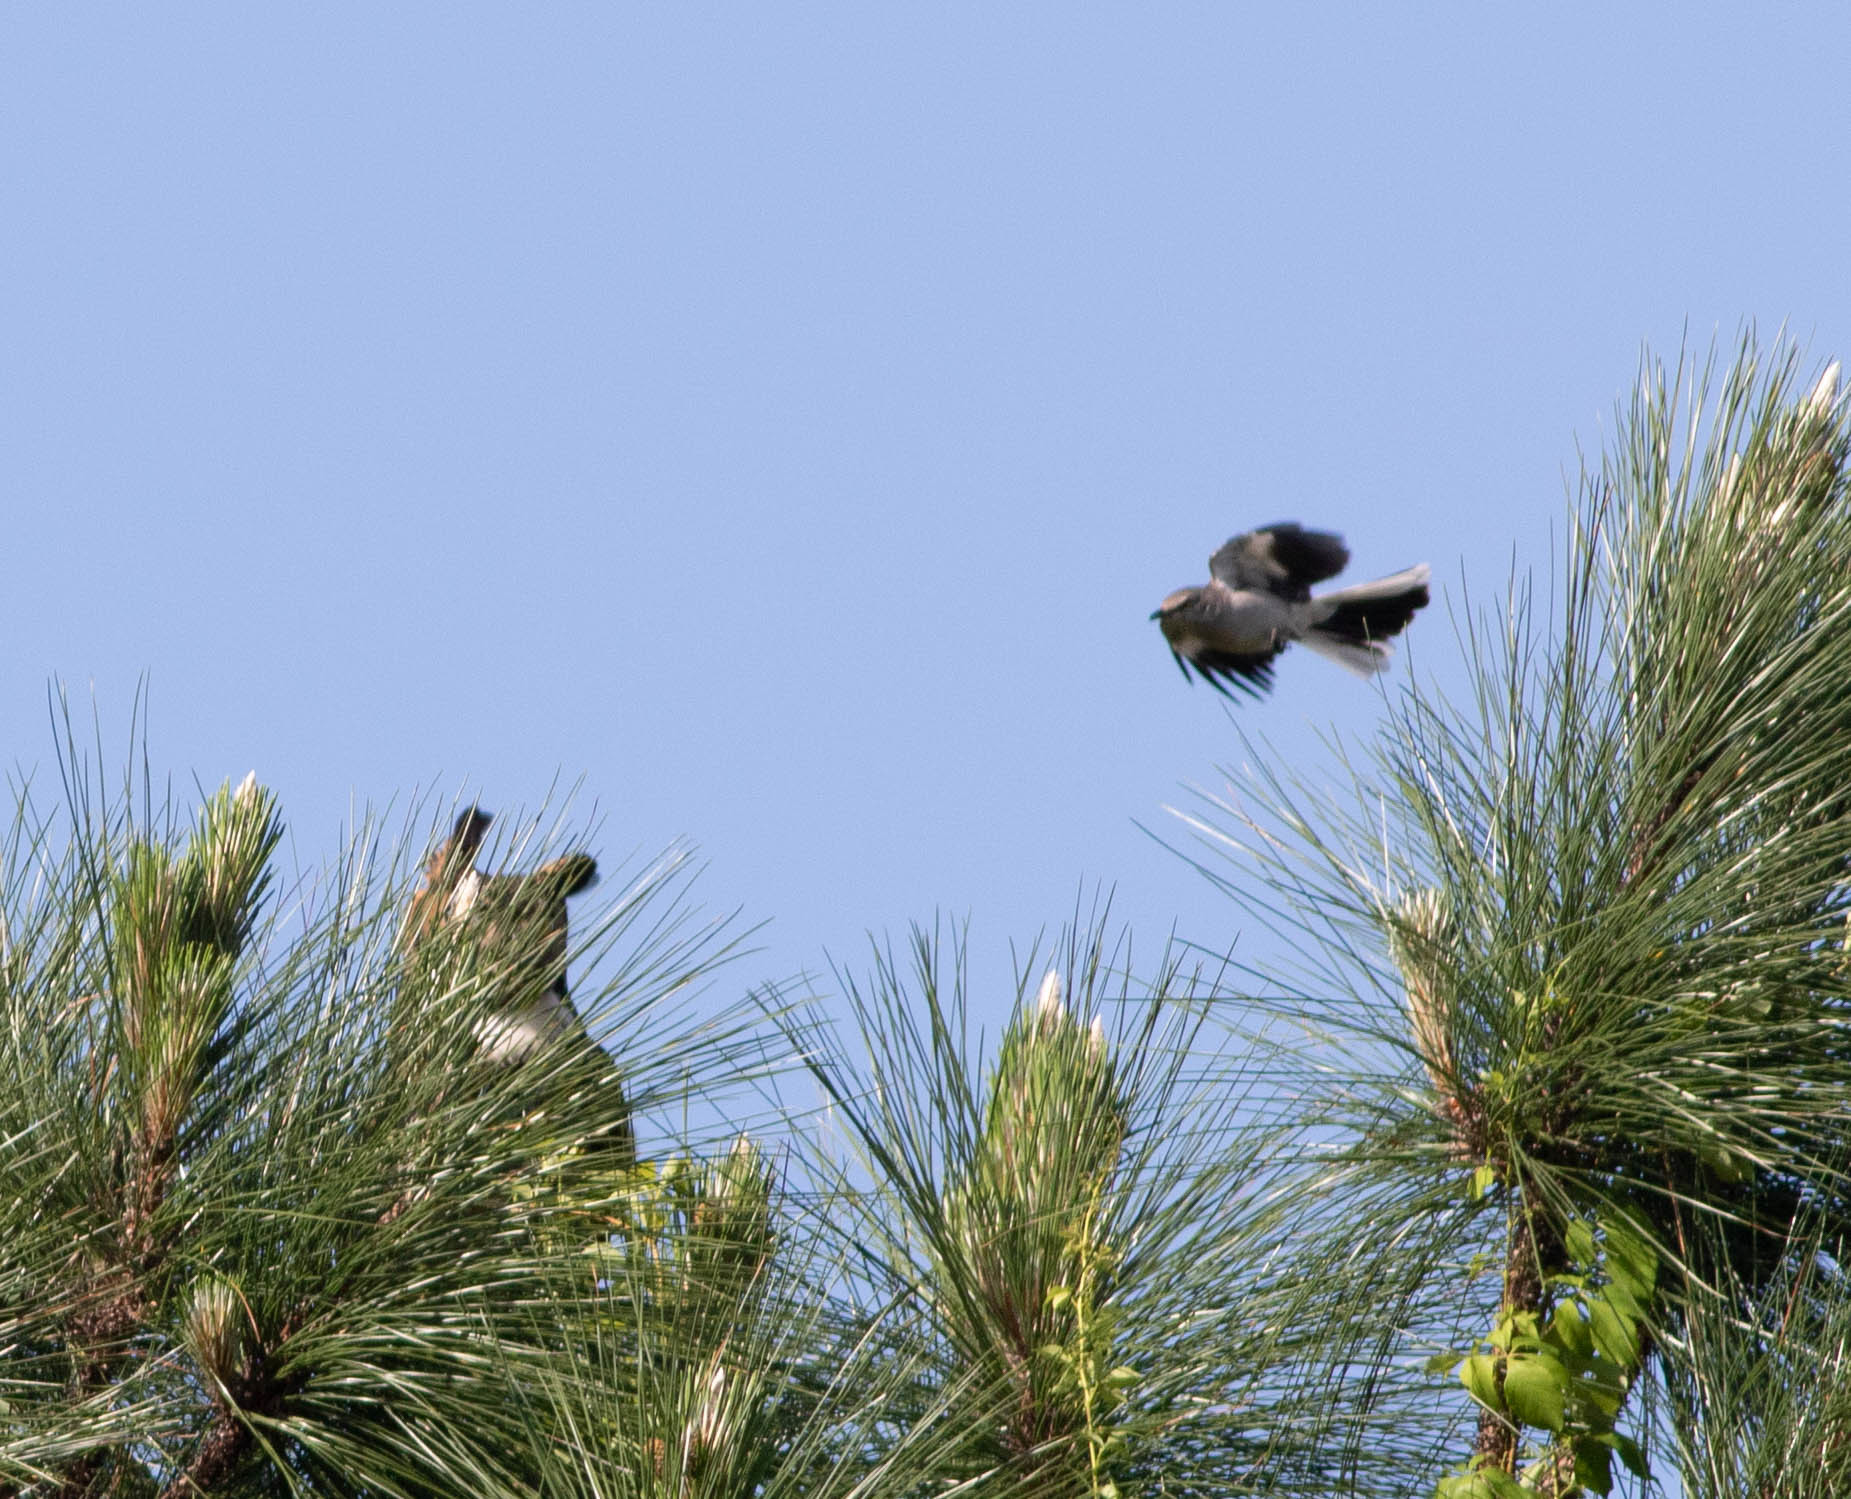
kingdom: Animalia
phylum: Chordata
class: Aves
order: Passeriformes
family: Mimidae
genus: Mimus
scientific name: Mimus polyglottos
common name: Northern mockingbird
